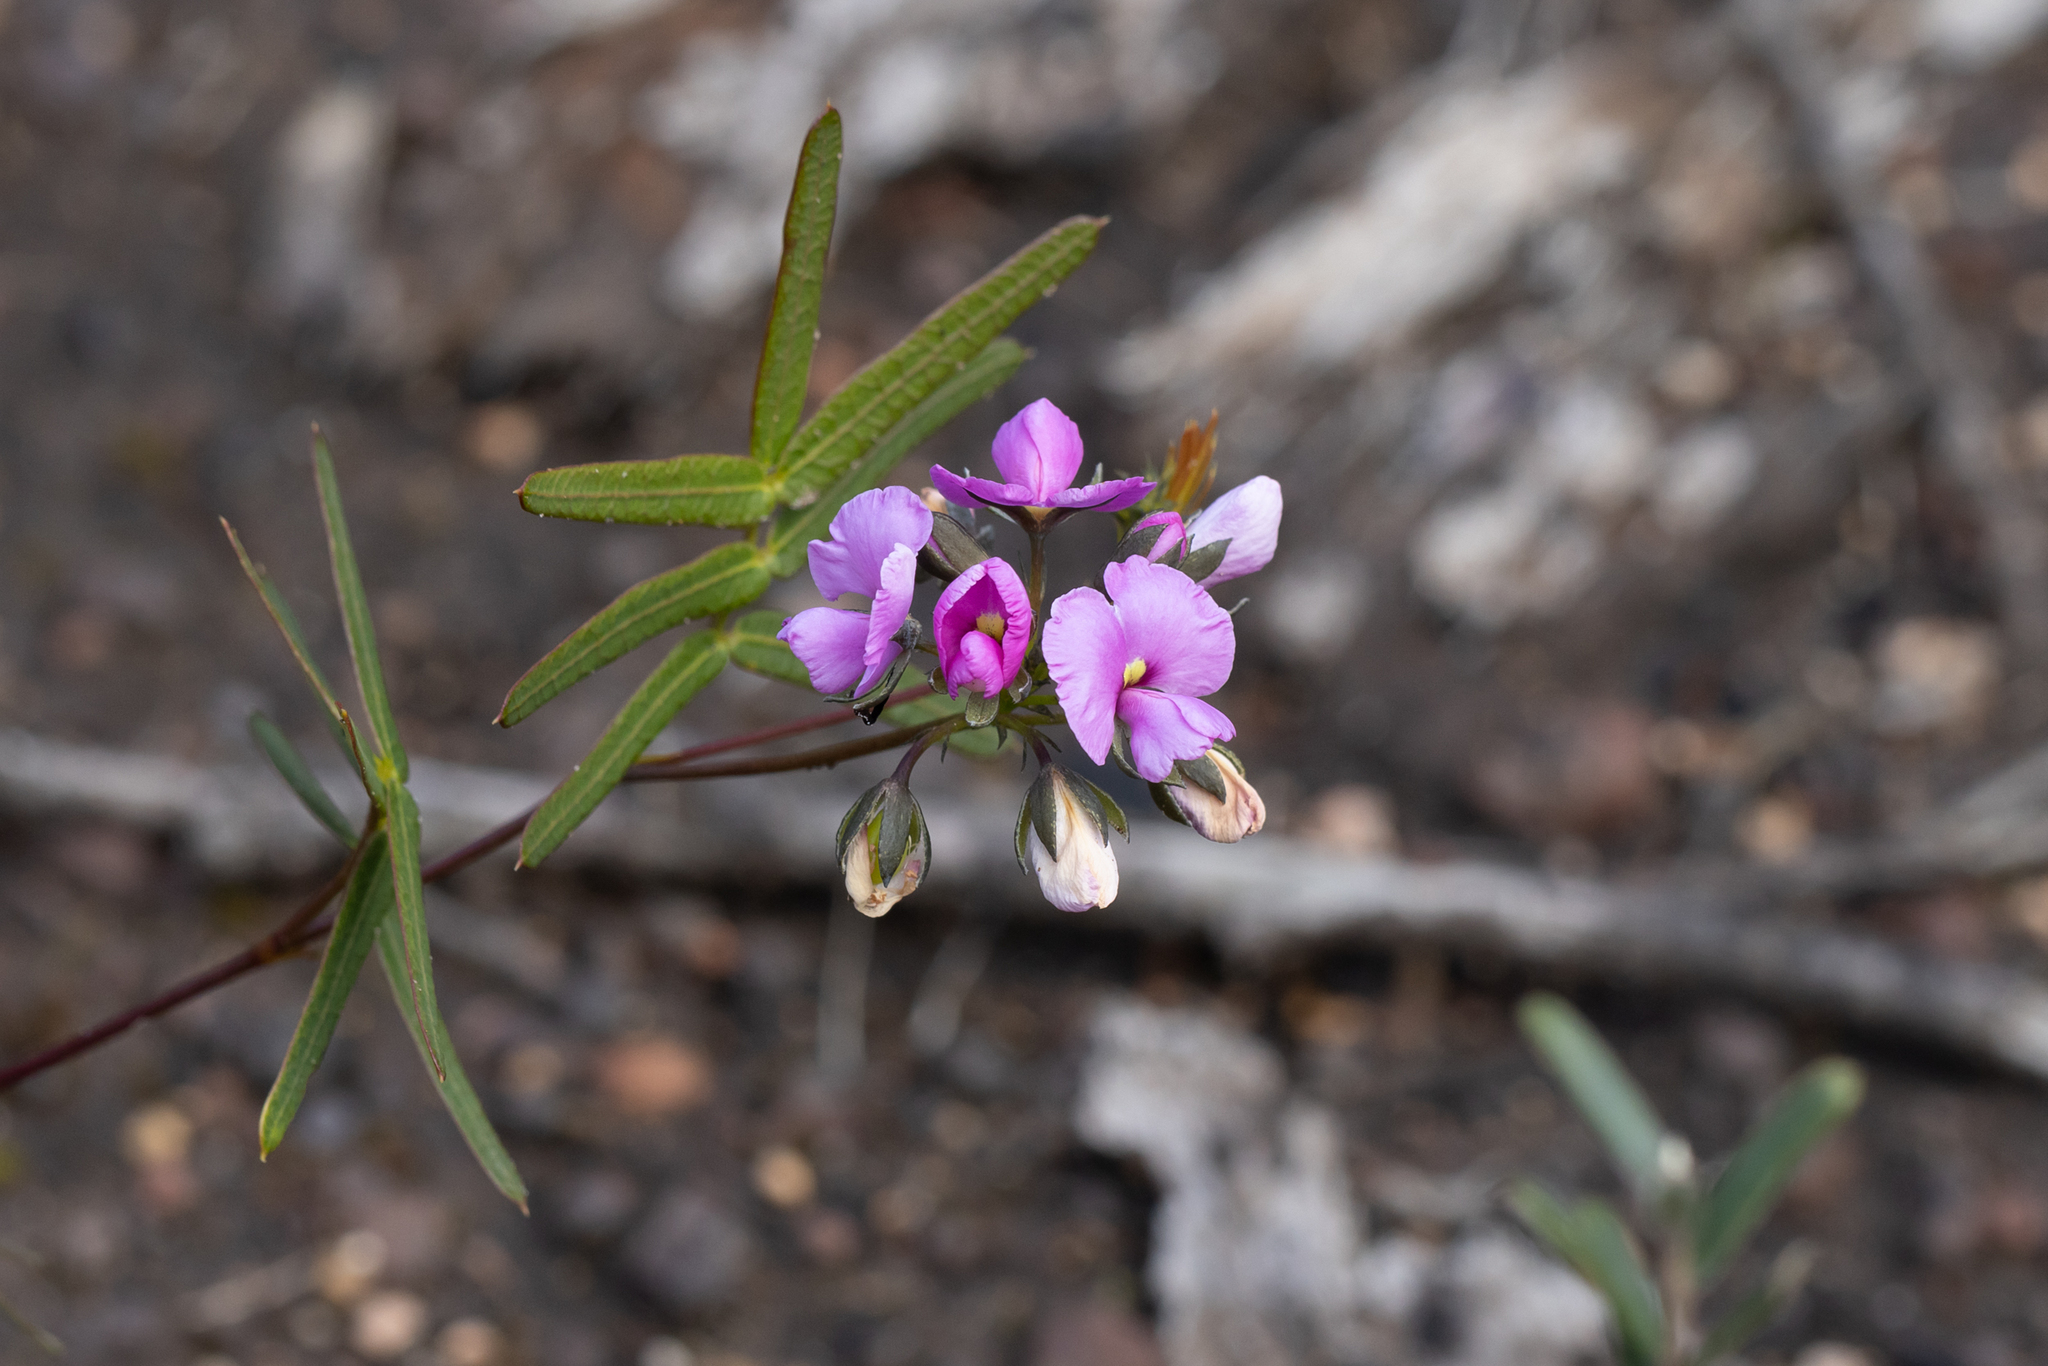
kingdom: Plantae
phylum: Tracheophyta
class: Magnoliopsida
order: Fabales
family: Fabaceae
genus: Gompholobium
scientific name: Gompholobium knightianum
